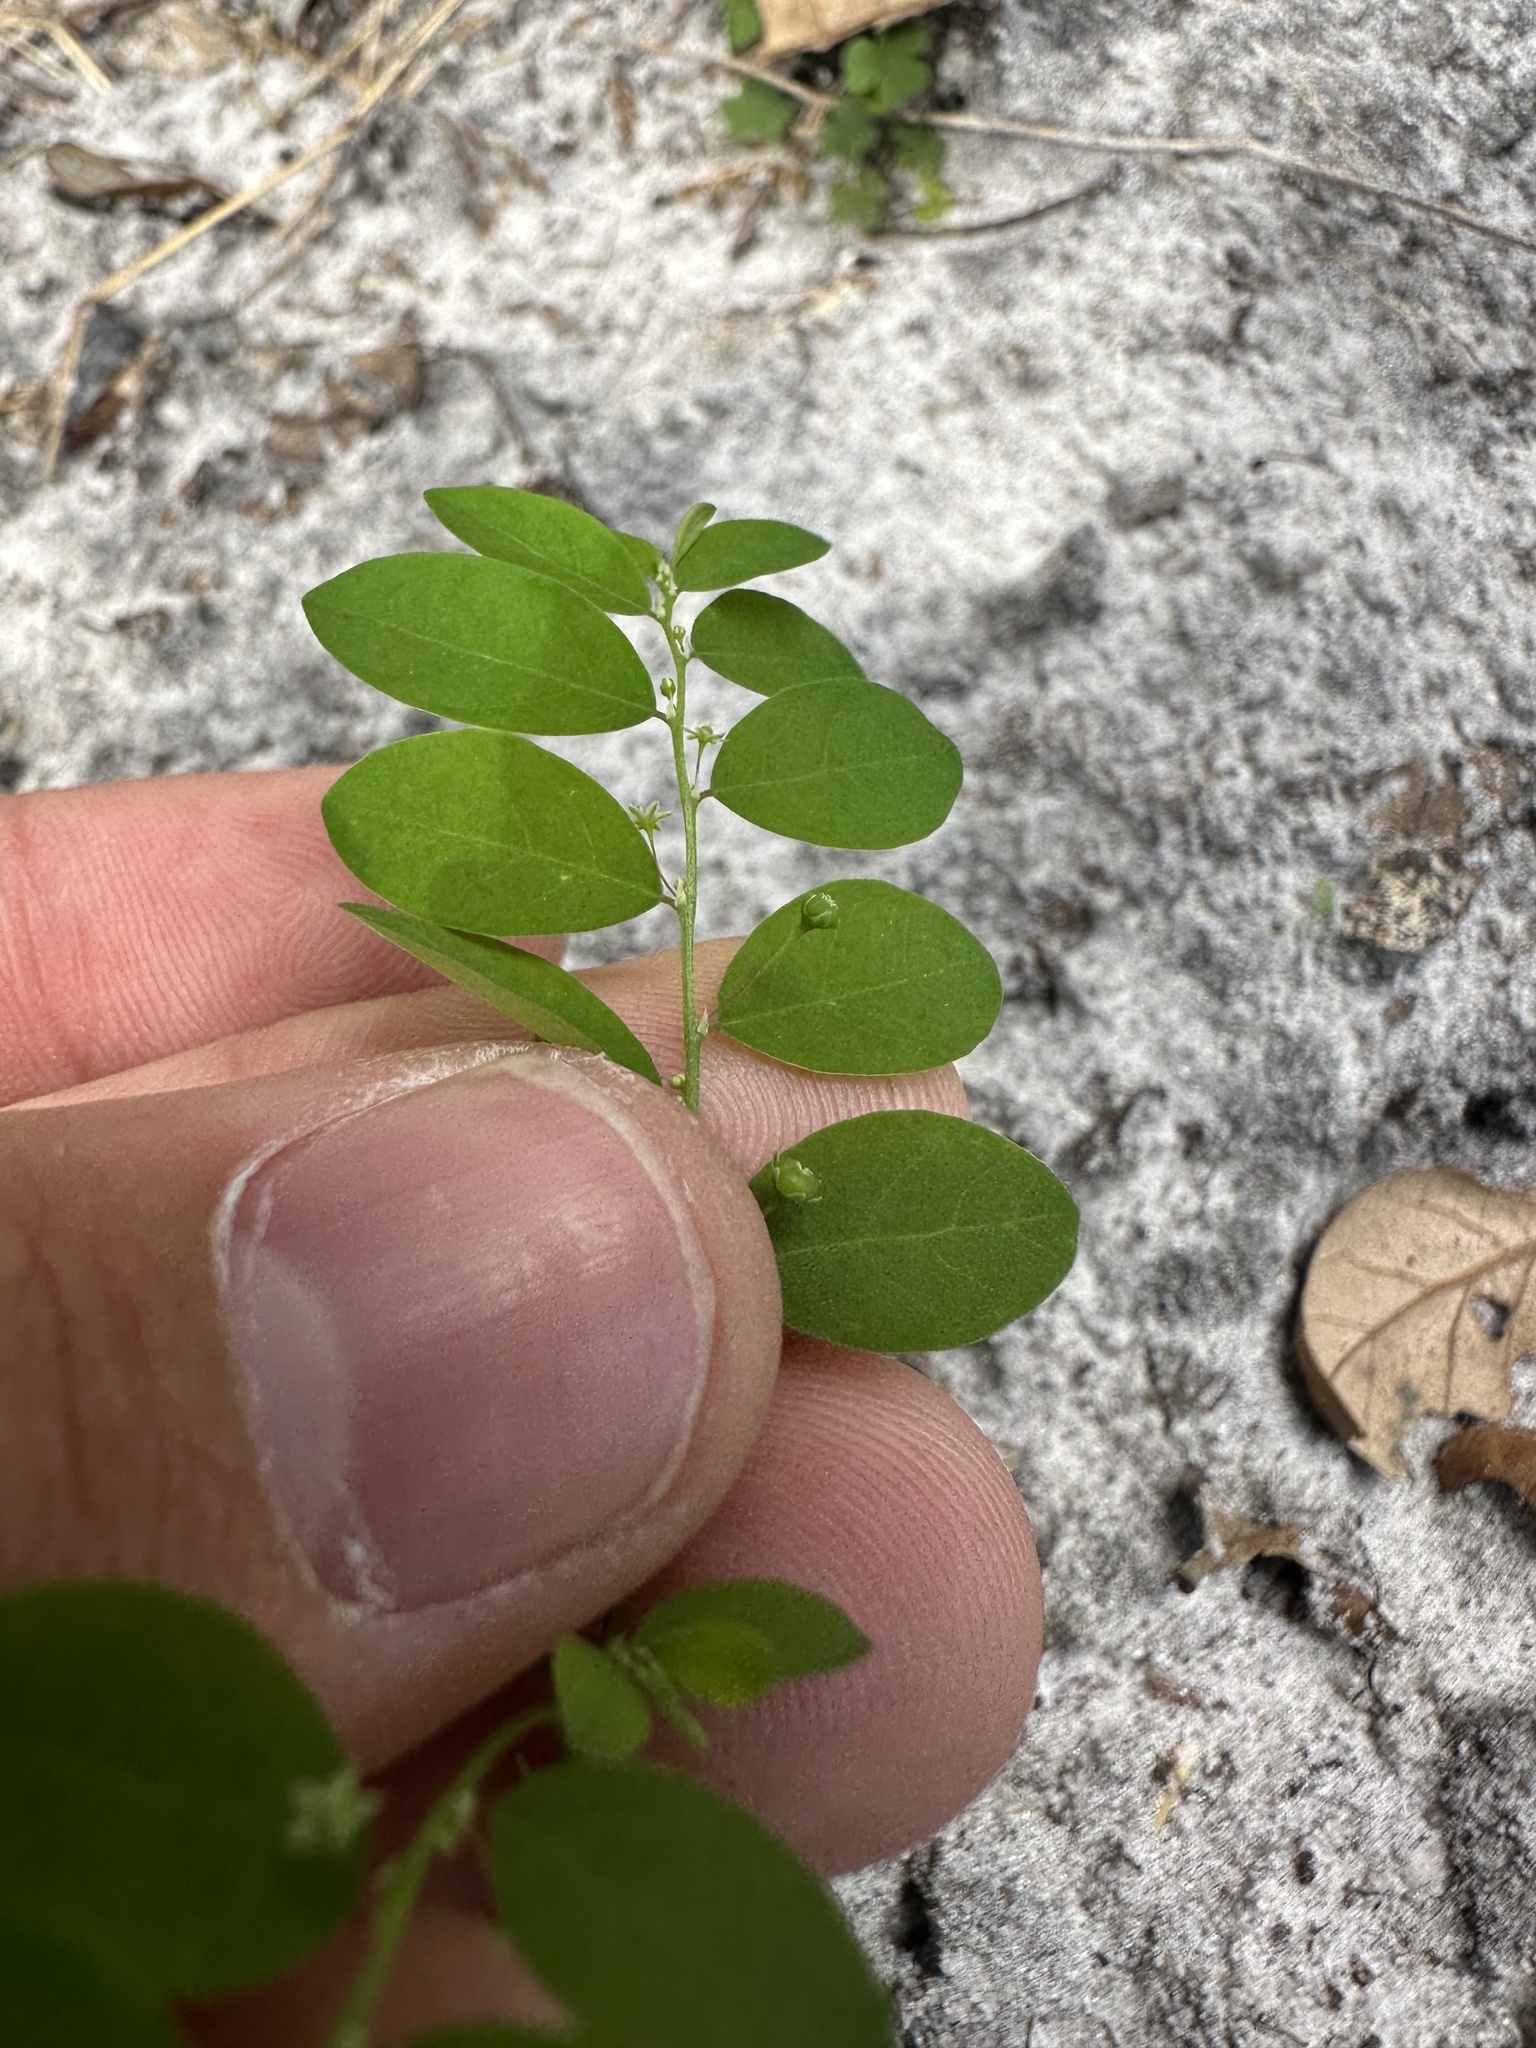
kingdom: Plantae
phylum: Tracheophyta
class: Magnoliopsida
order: Malpighiales
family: Phyllanthaceae
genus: Phyllanthus
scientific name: Phyllanthus tenellus
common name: Mascarene island leaf-flower
